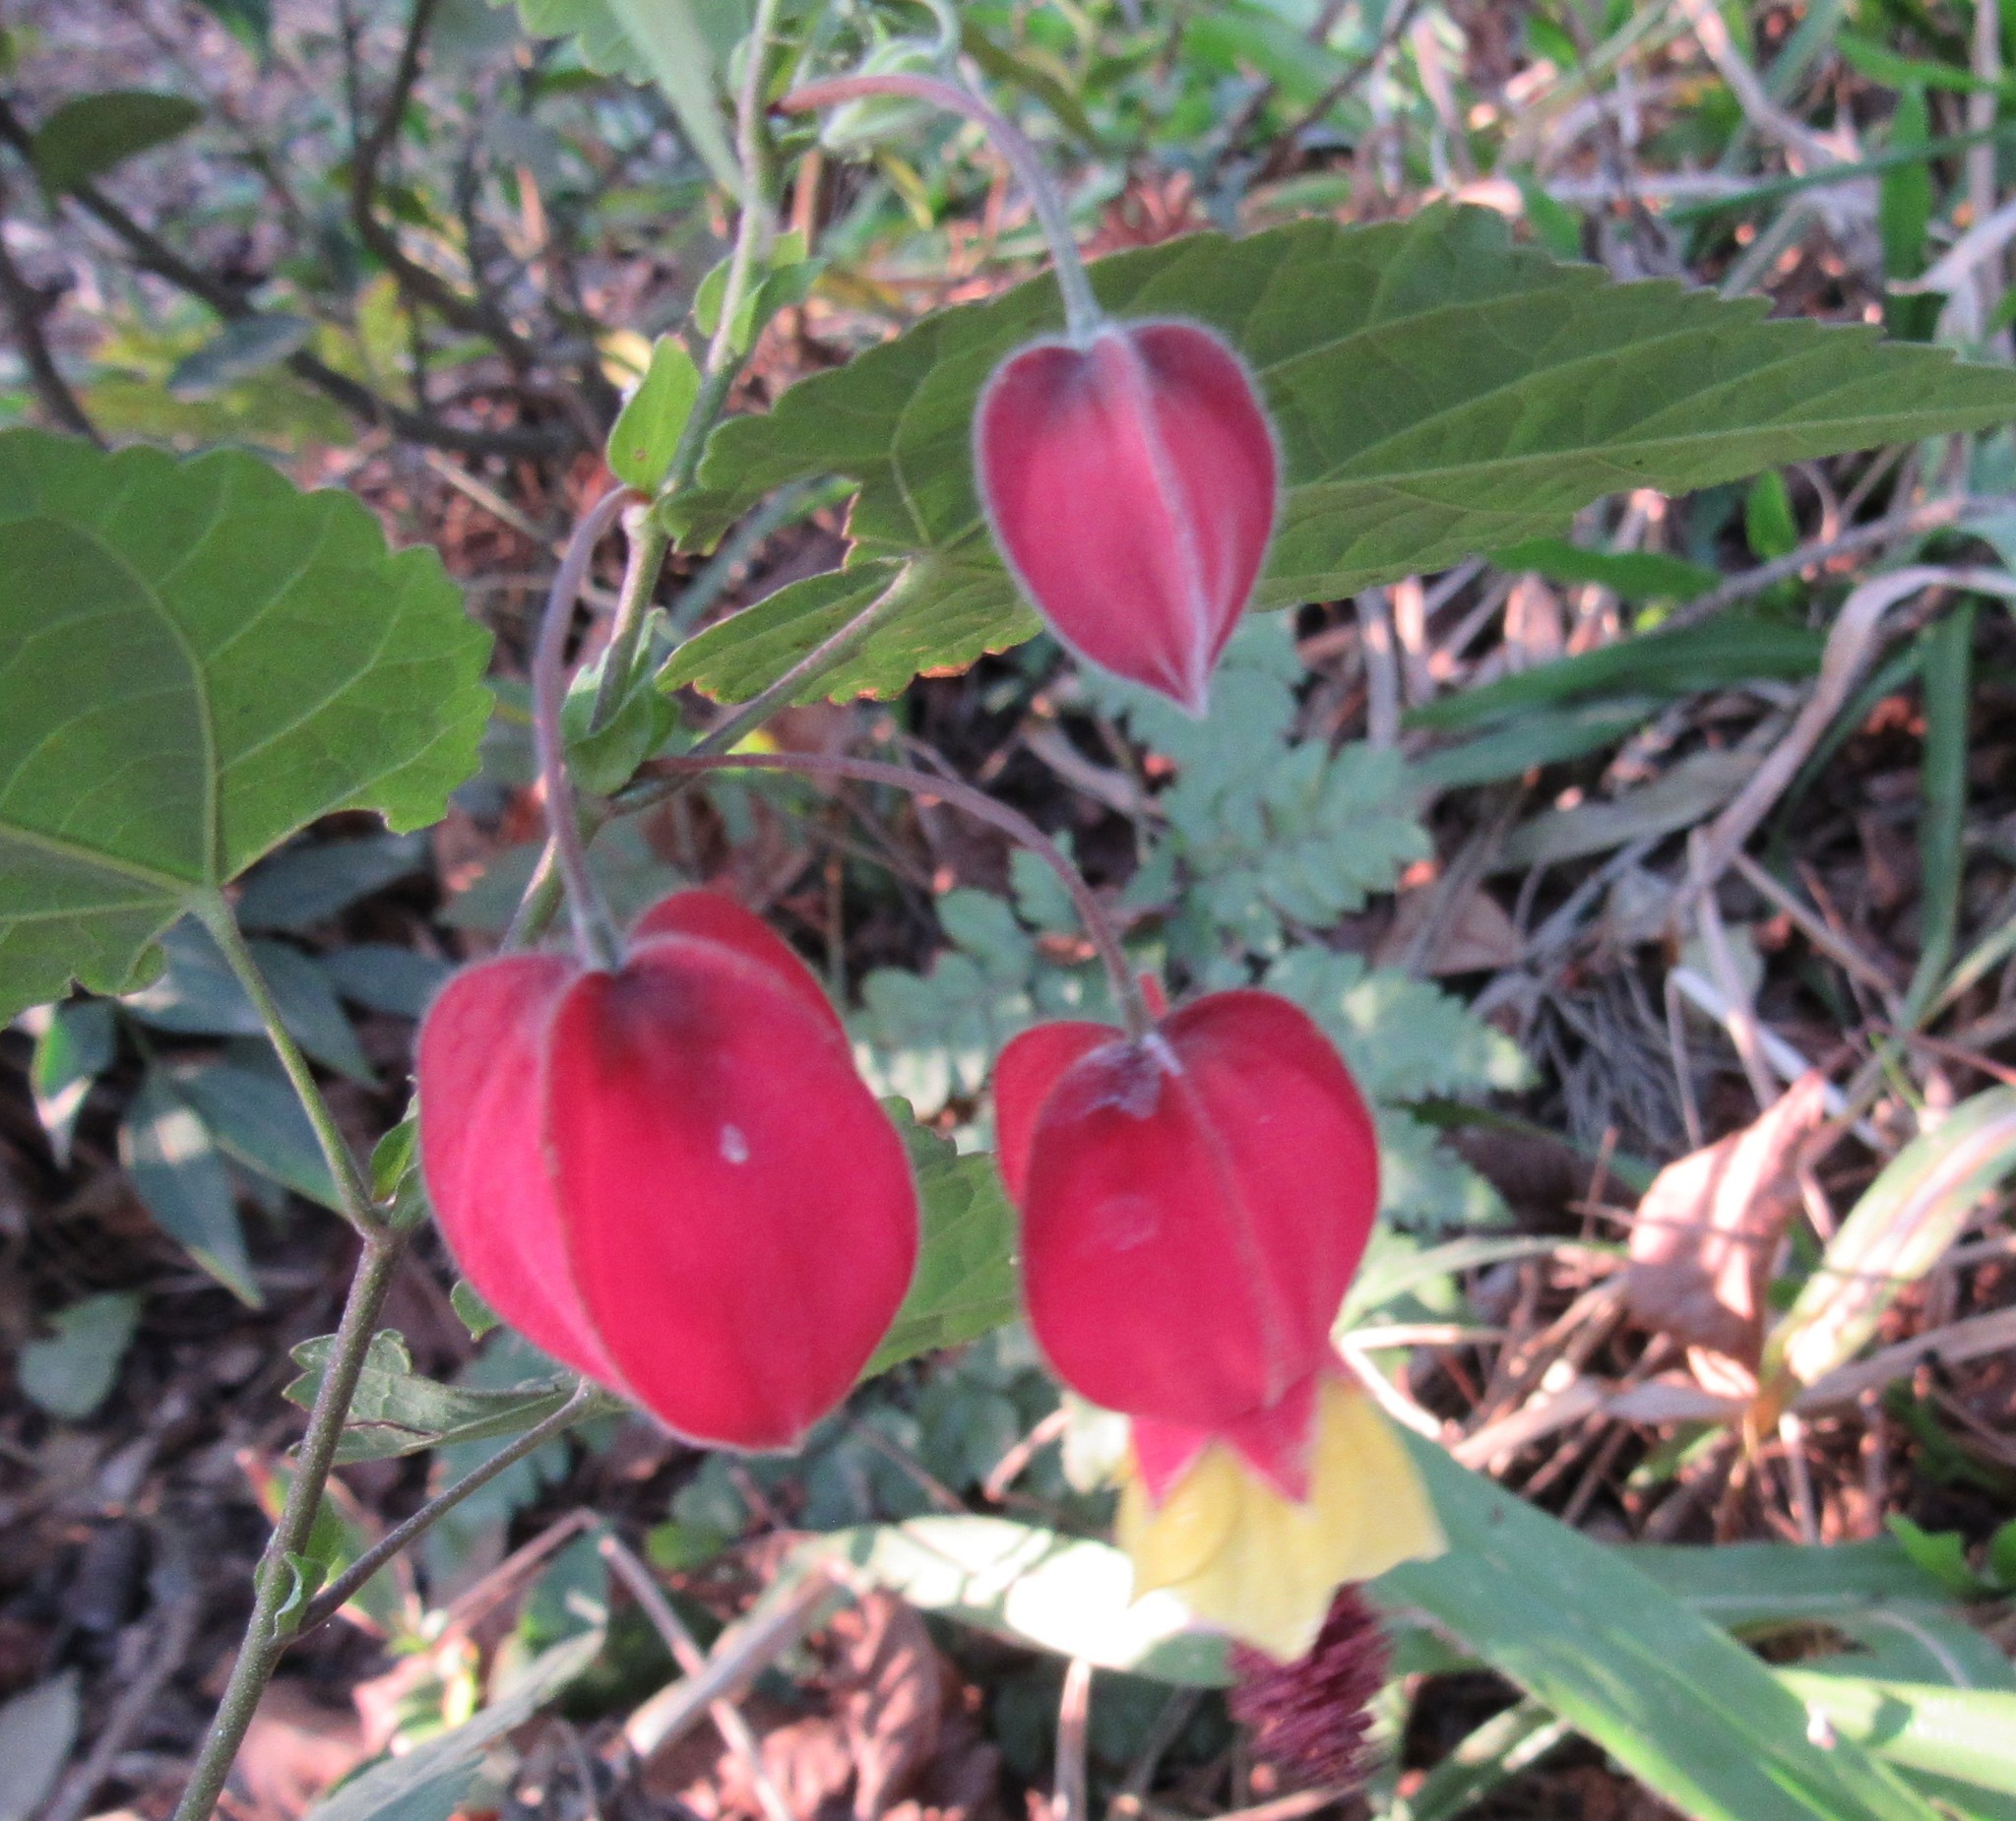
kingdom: Plantae
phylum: Tracheophyta
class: Magnoliopsida
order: Malvales
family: Malvaceae
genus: Callianthe
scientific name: Callianthe vexillaria
